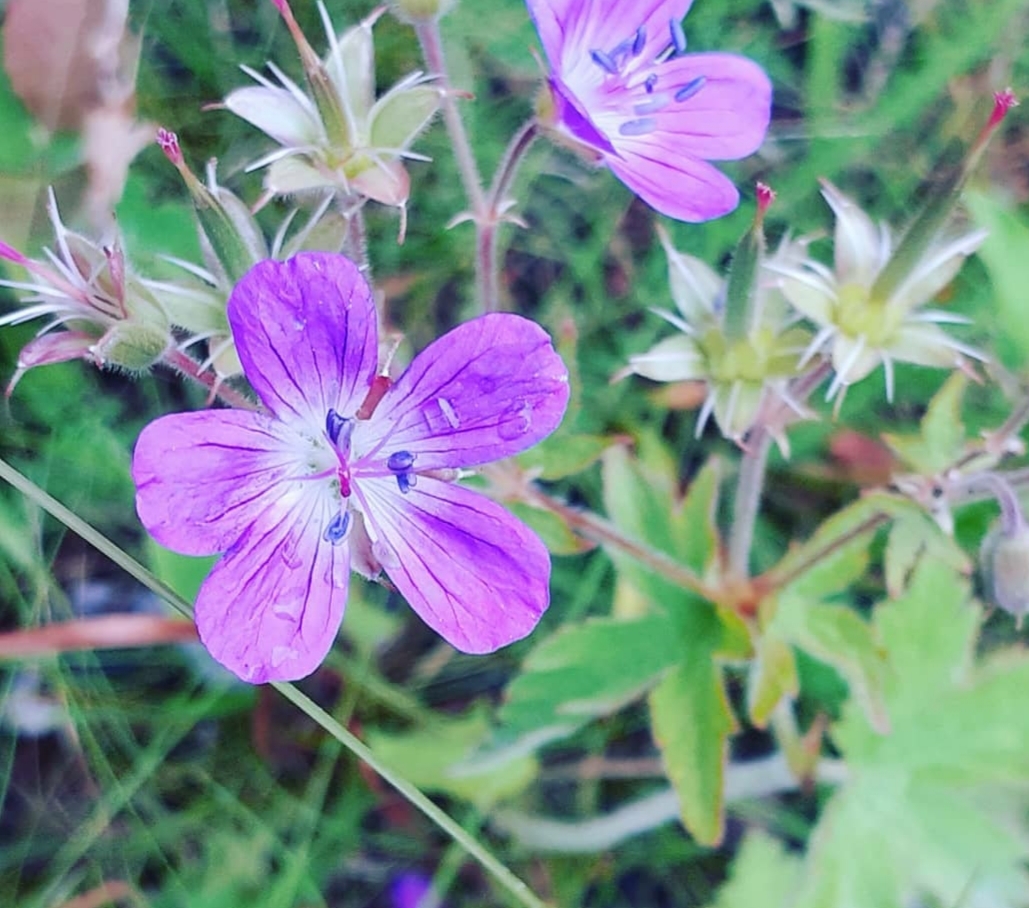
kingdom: Plantae
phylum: Tracheophyta
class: Magnoliopsida
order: Geraniales
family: Geraniaceae
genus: Geranium
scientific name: Geranium sylvaticum
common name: Wood crane's-bill
